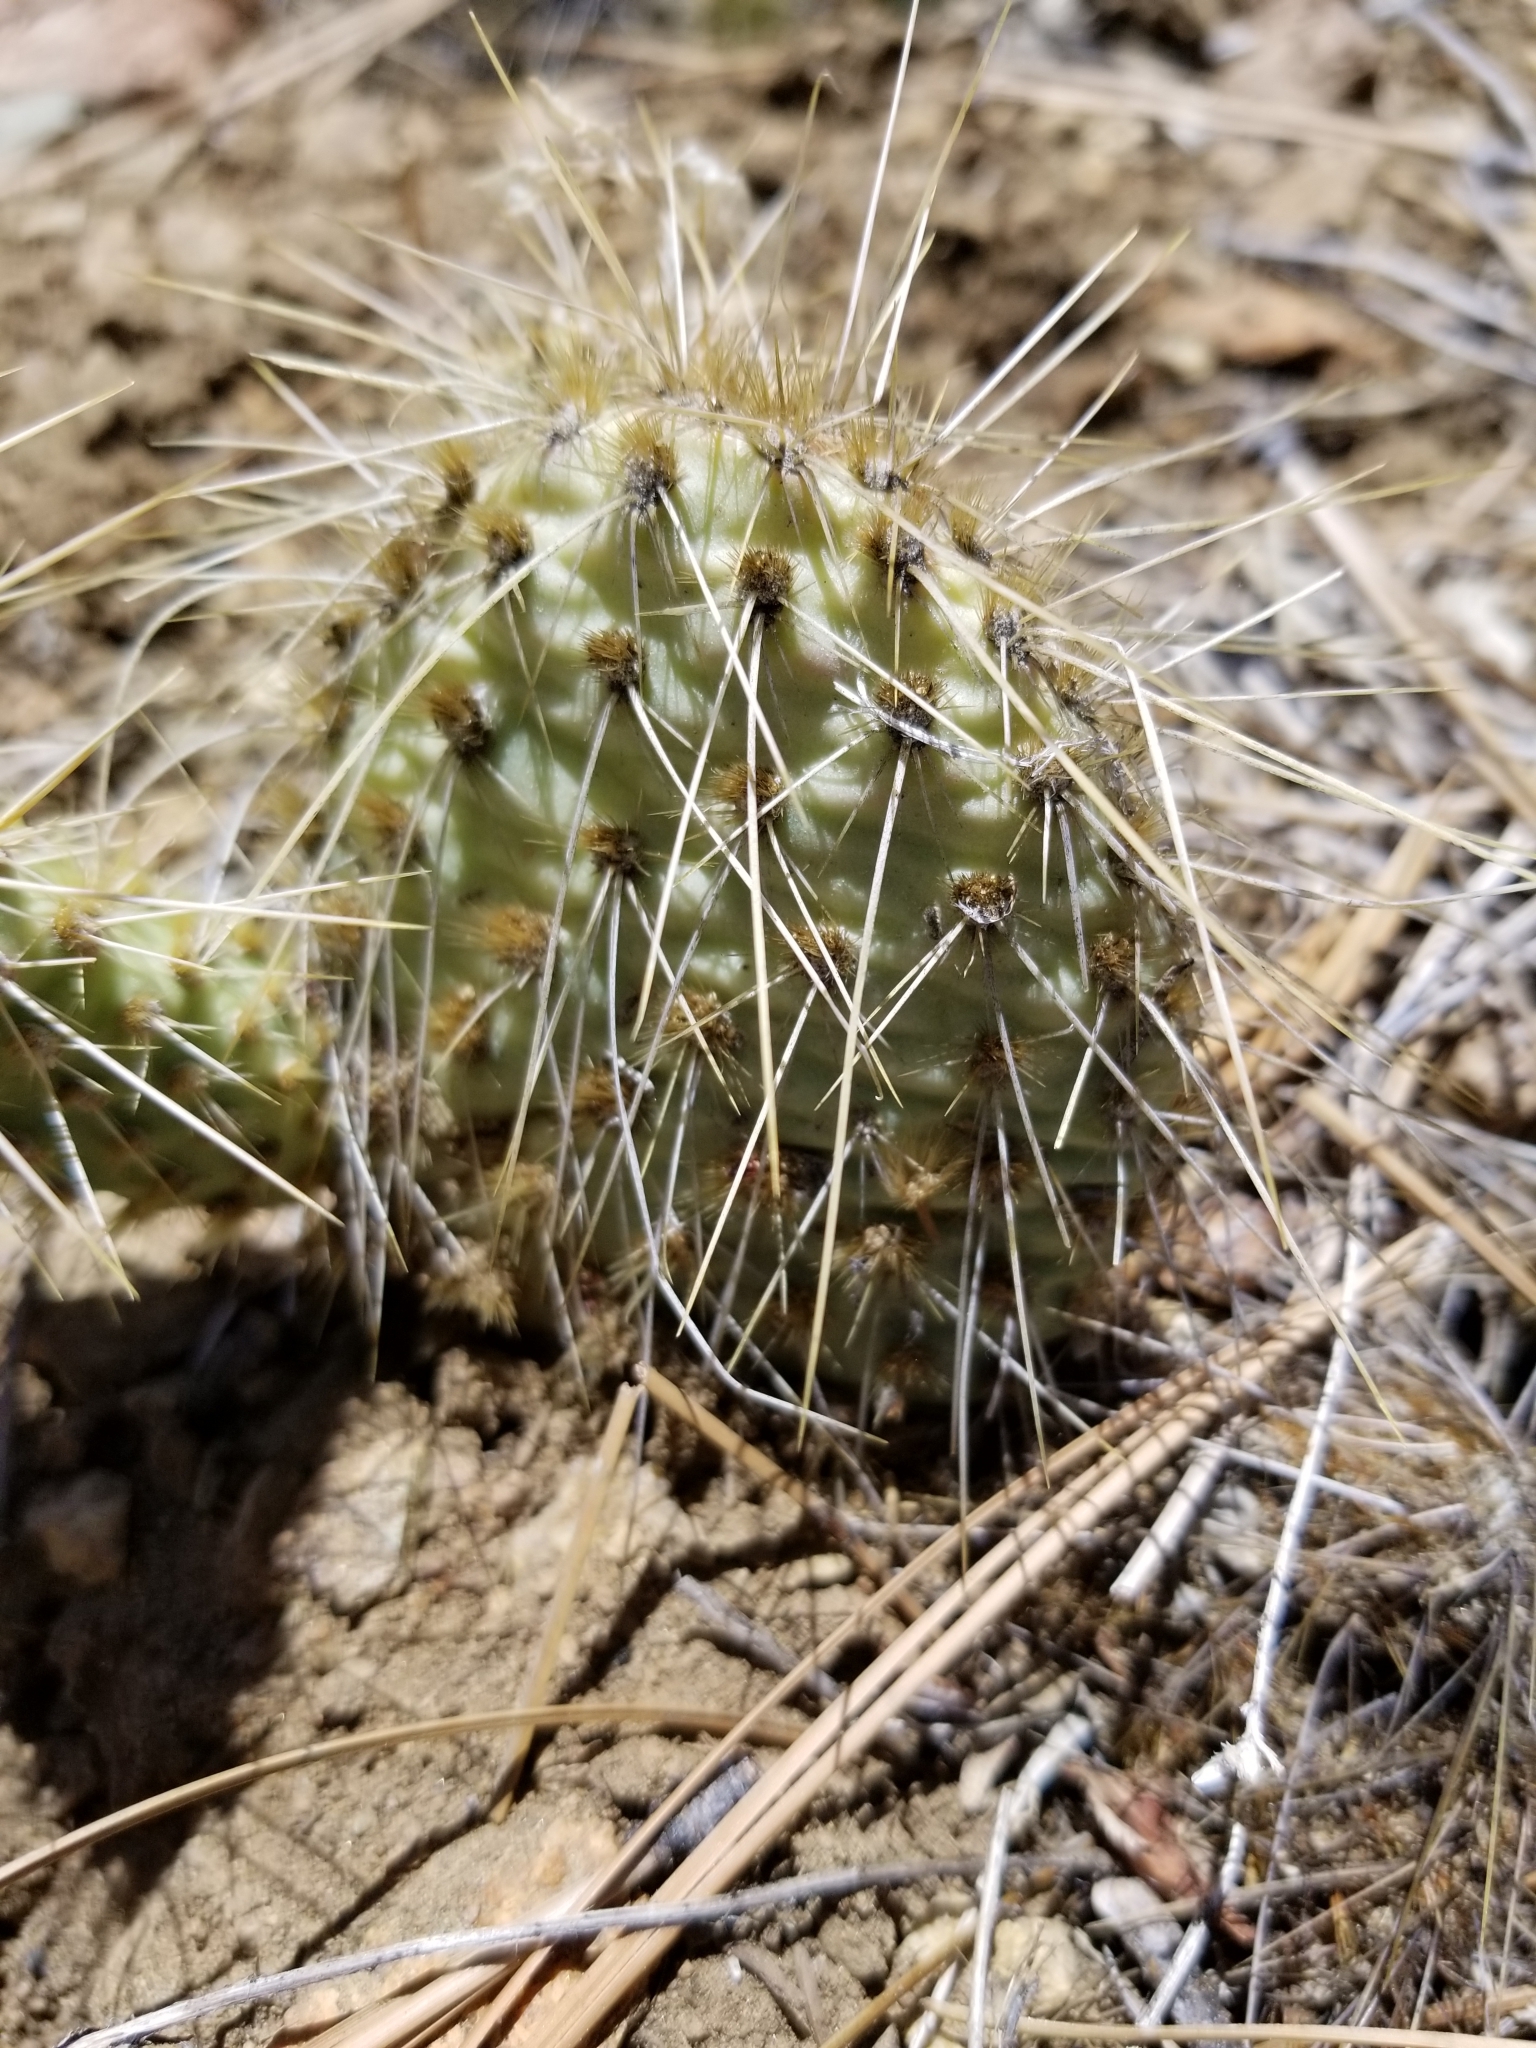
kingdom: Plantae
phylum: Tracheophyta
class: Magnoliopsida
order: Caryophyllales
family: Cactaceae
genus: Opuntia
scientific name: Opuntia polyacantha
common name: Plains prickly-pear
